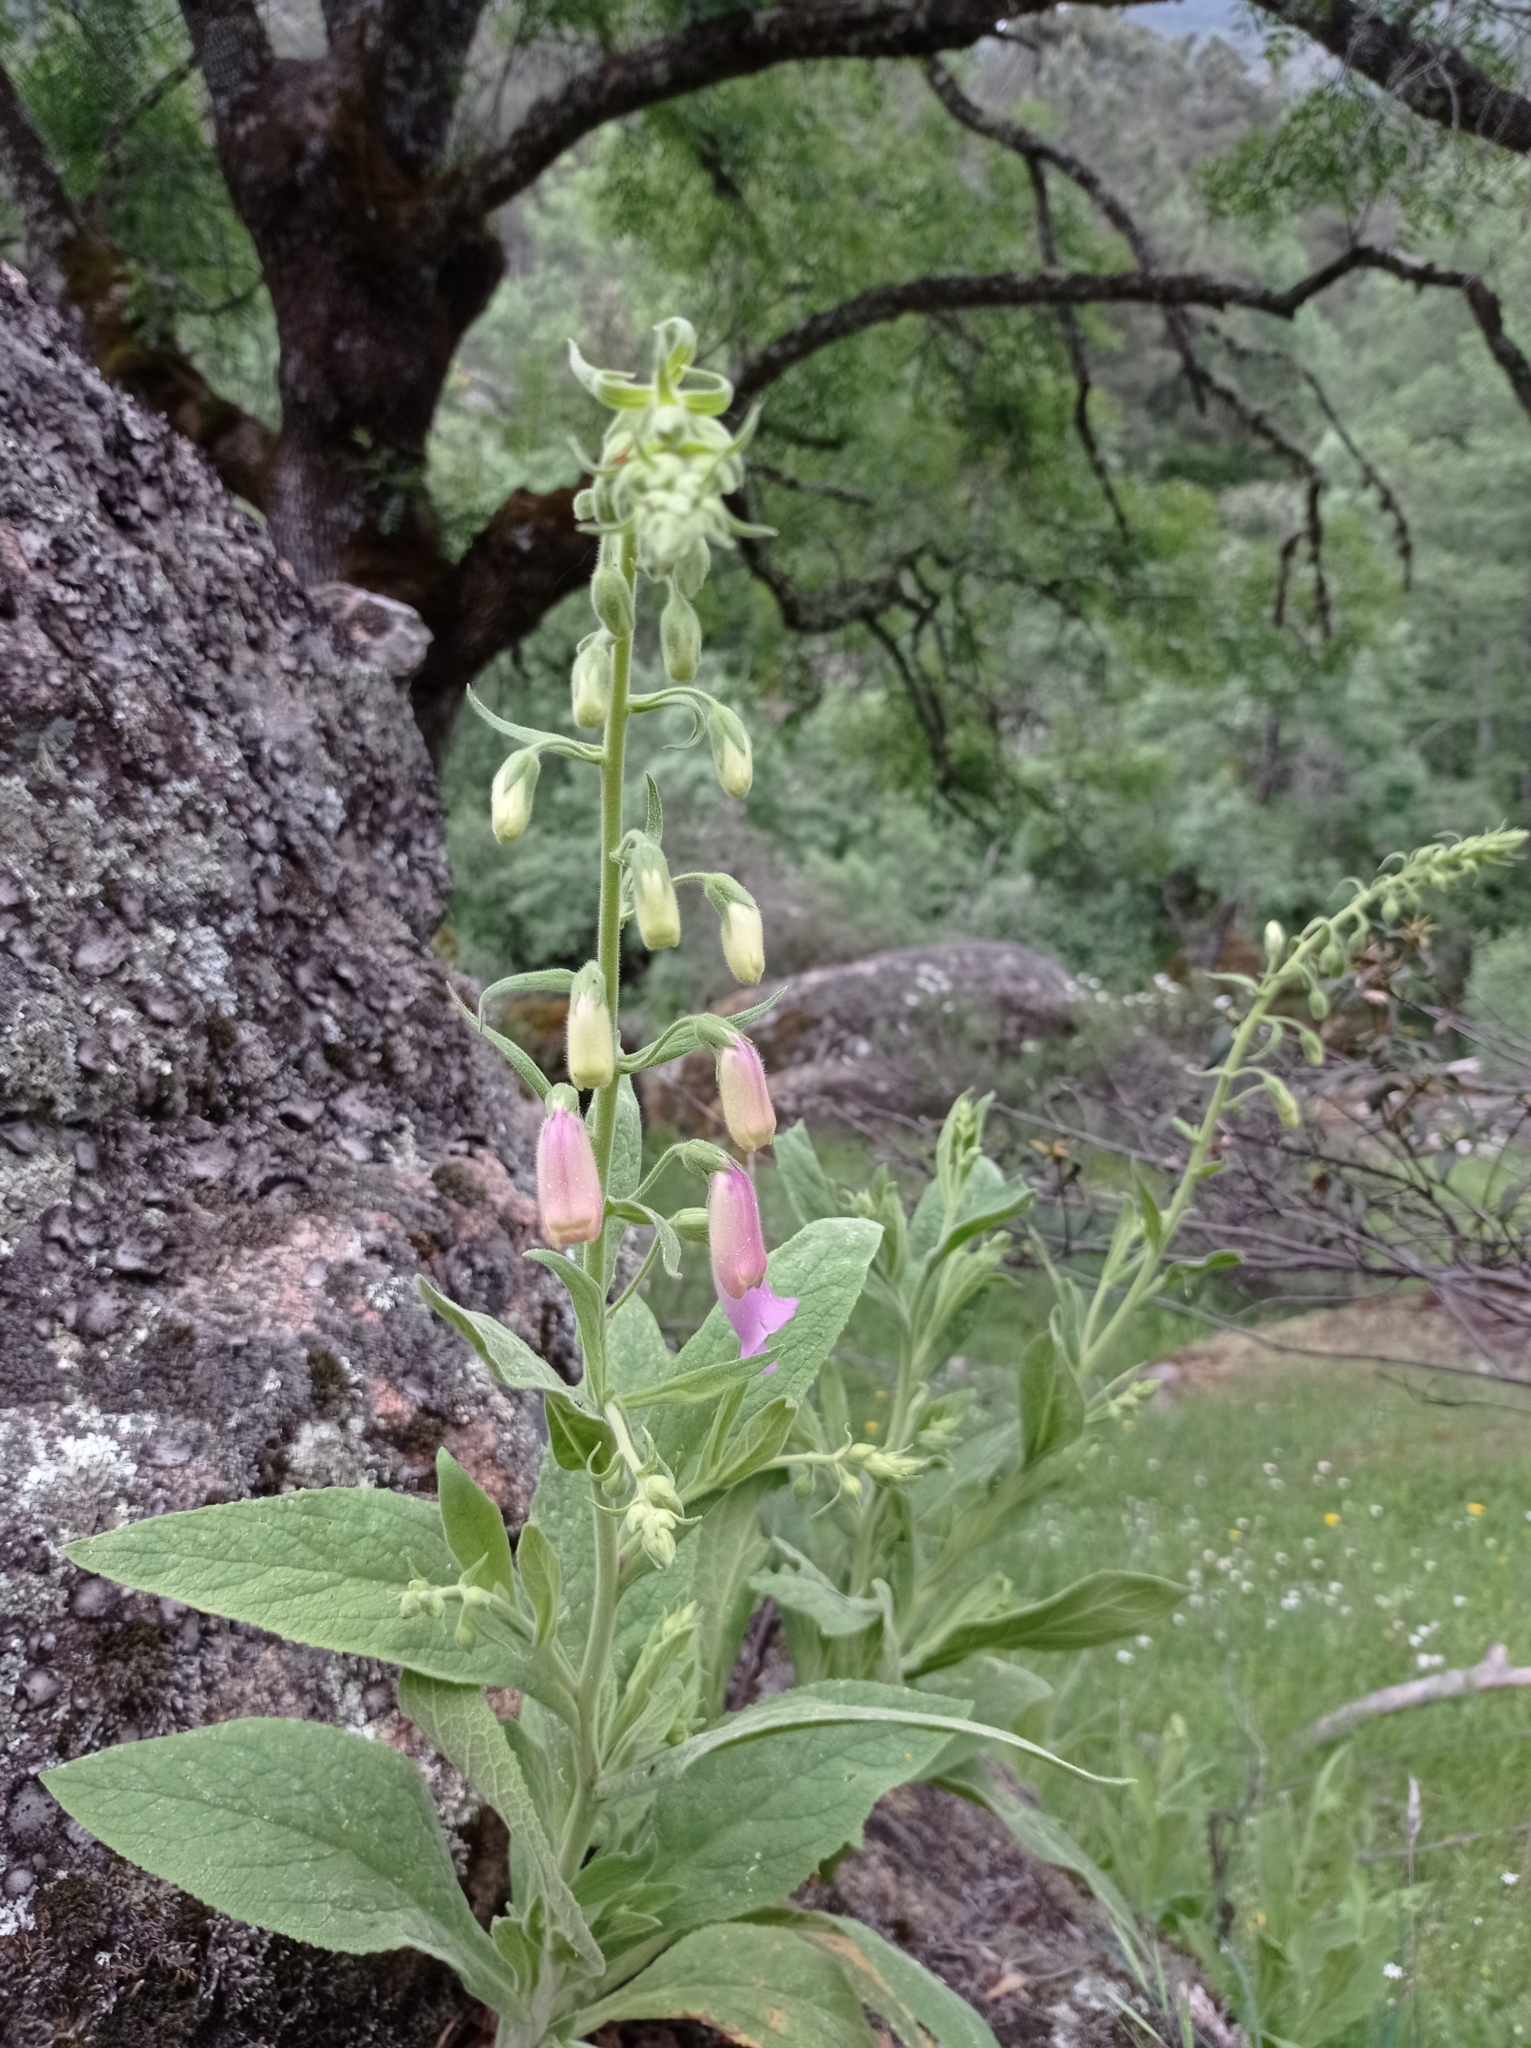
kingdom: Plantae
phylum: Tracheophyta
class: Magnoliopsida
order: Lamiales
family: Plantaginaceae
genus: Digitalis
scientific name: Digitalis thapsi
